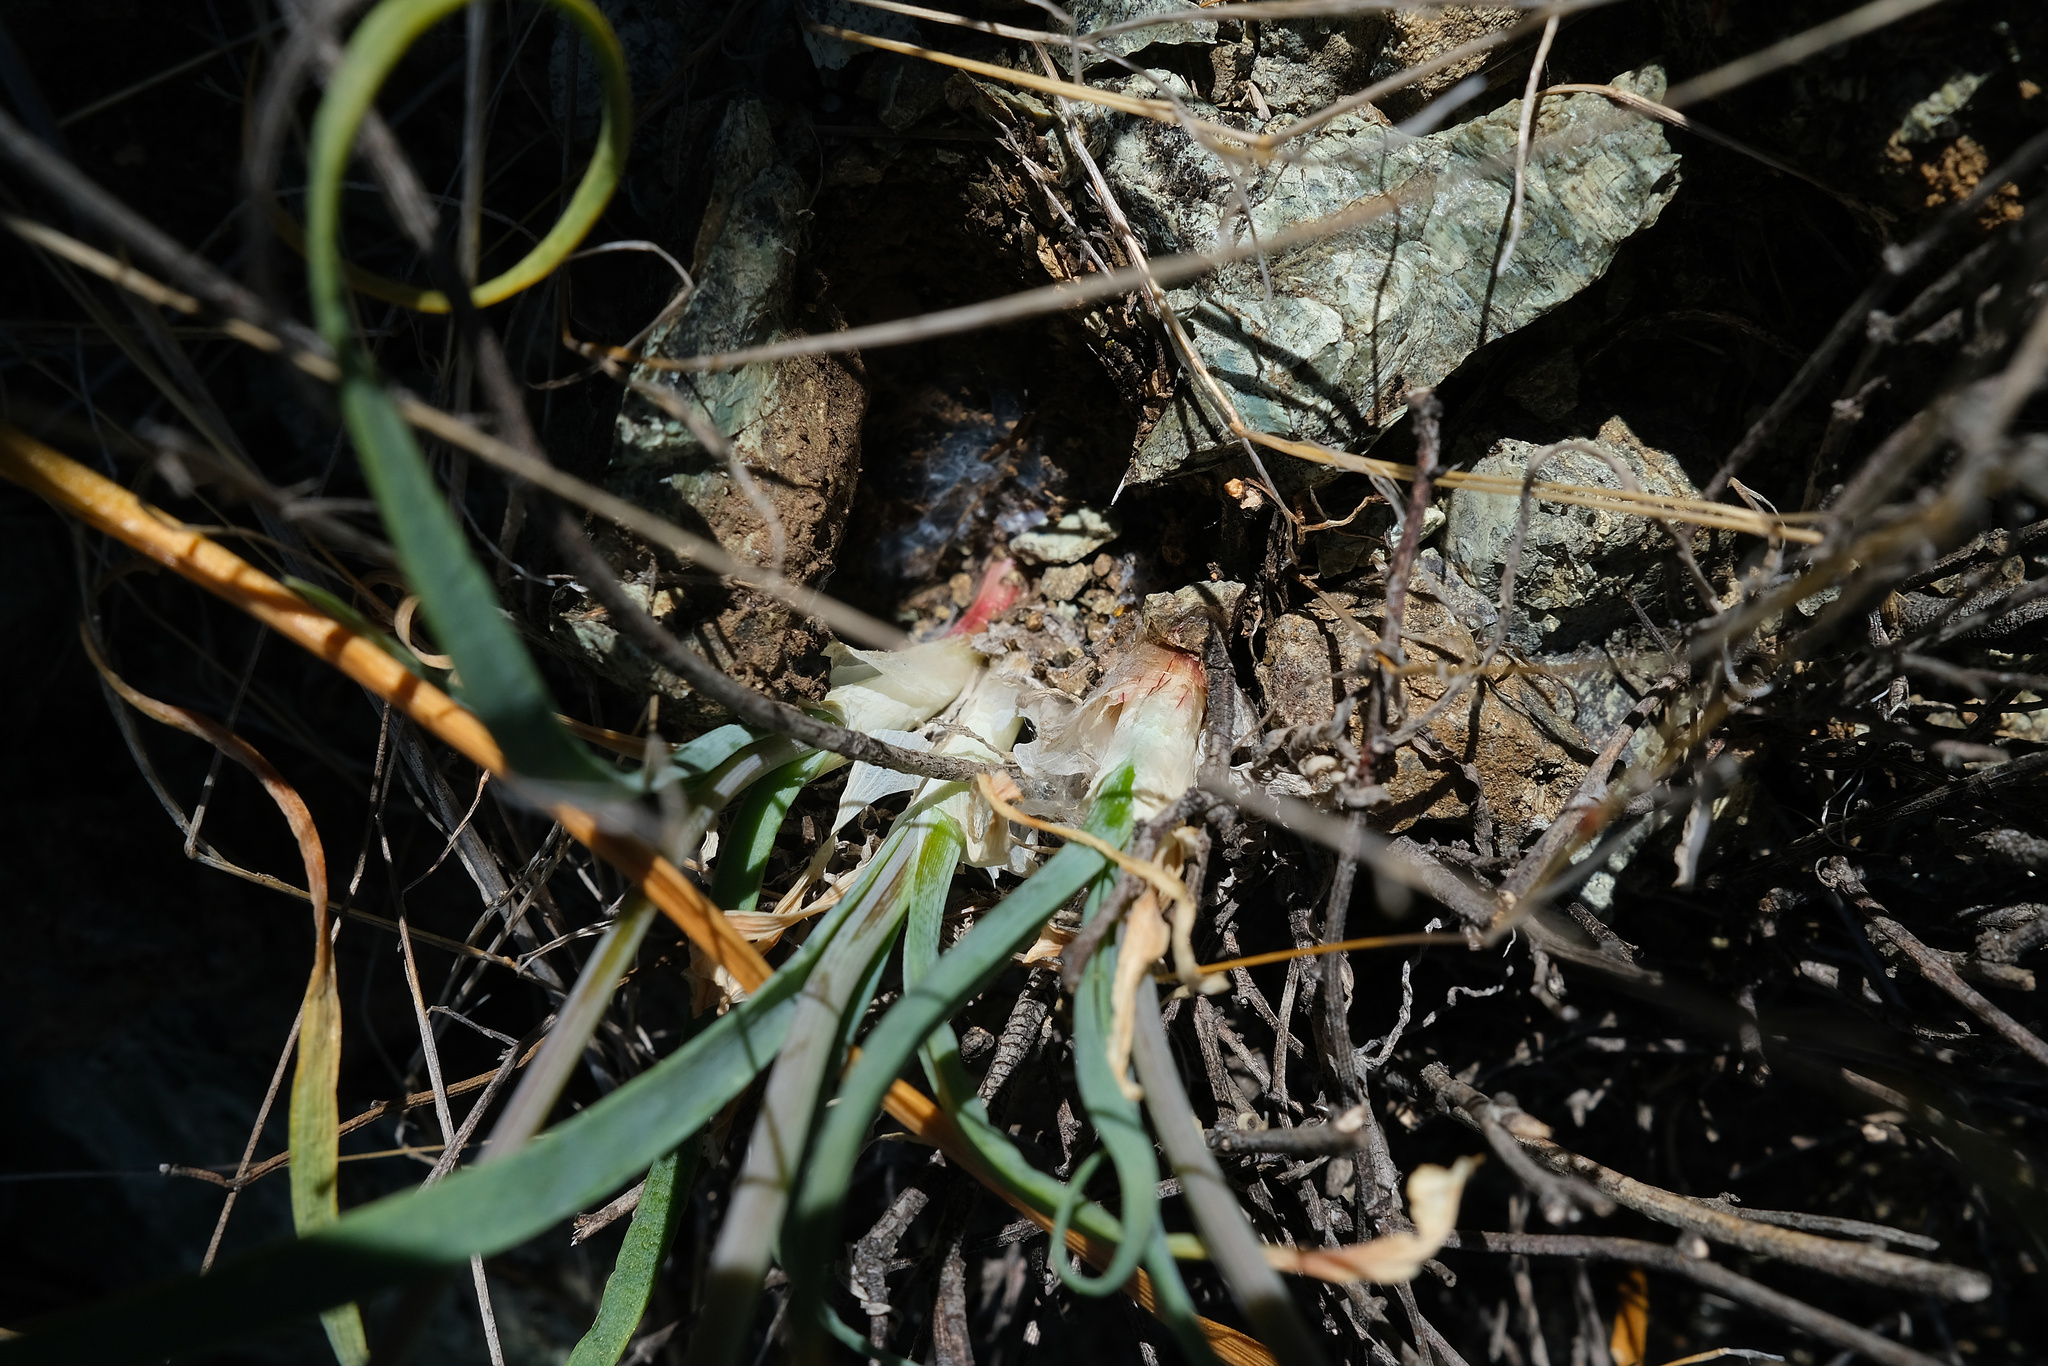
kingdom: Plantae
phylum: Tracheophyta
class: Liliopsida
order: Asparagales
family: Amaryllidaceae
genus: Allium
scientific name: Allium haematochiton
